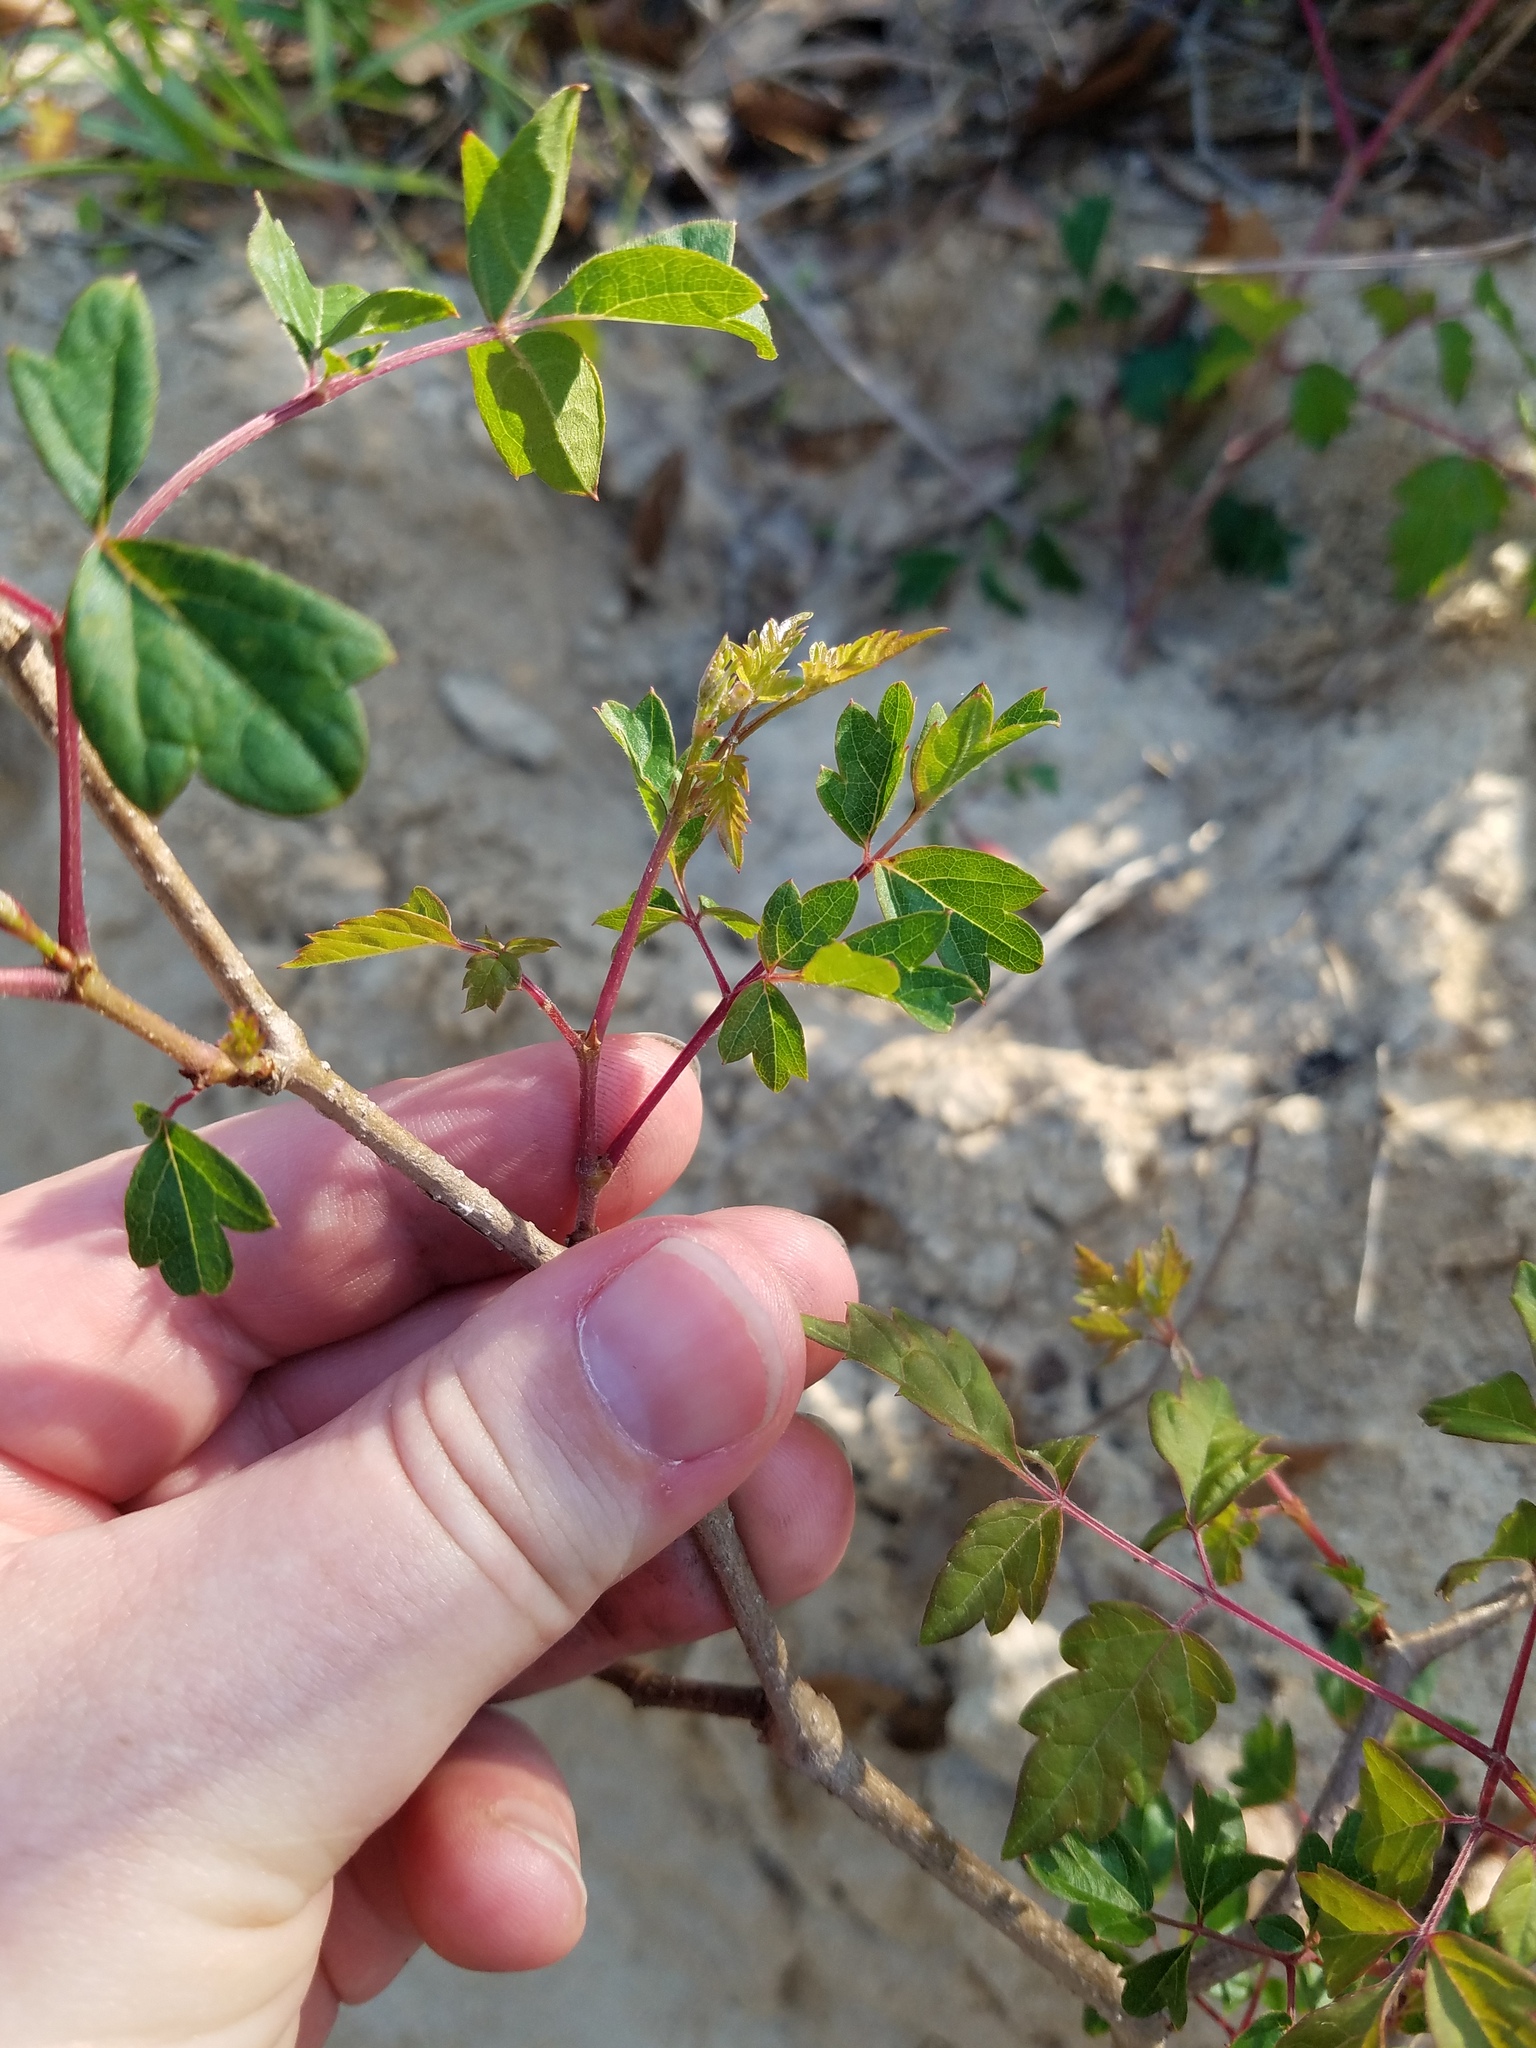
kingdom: Plantae
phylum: Tracheophyta
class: Magnoliopsida
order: Vitales
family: Vitaceae
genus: Nekemias
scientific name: Nekemias arborea
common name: Peppervine
